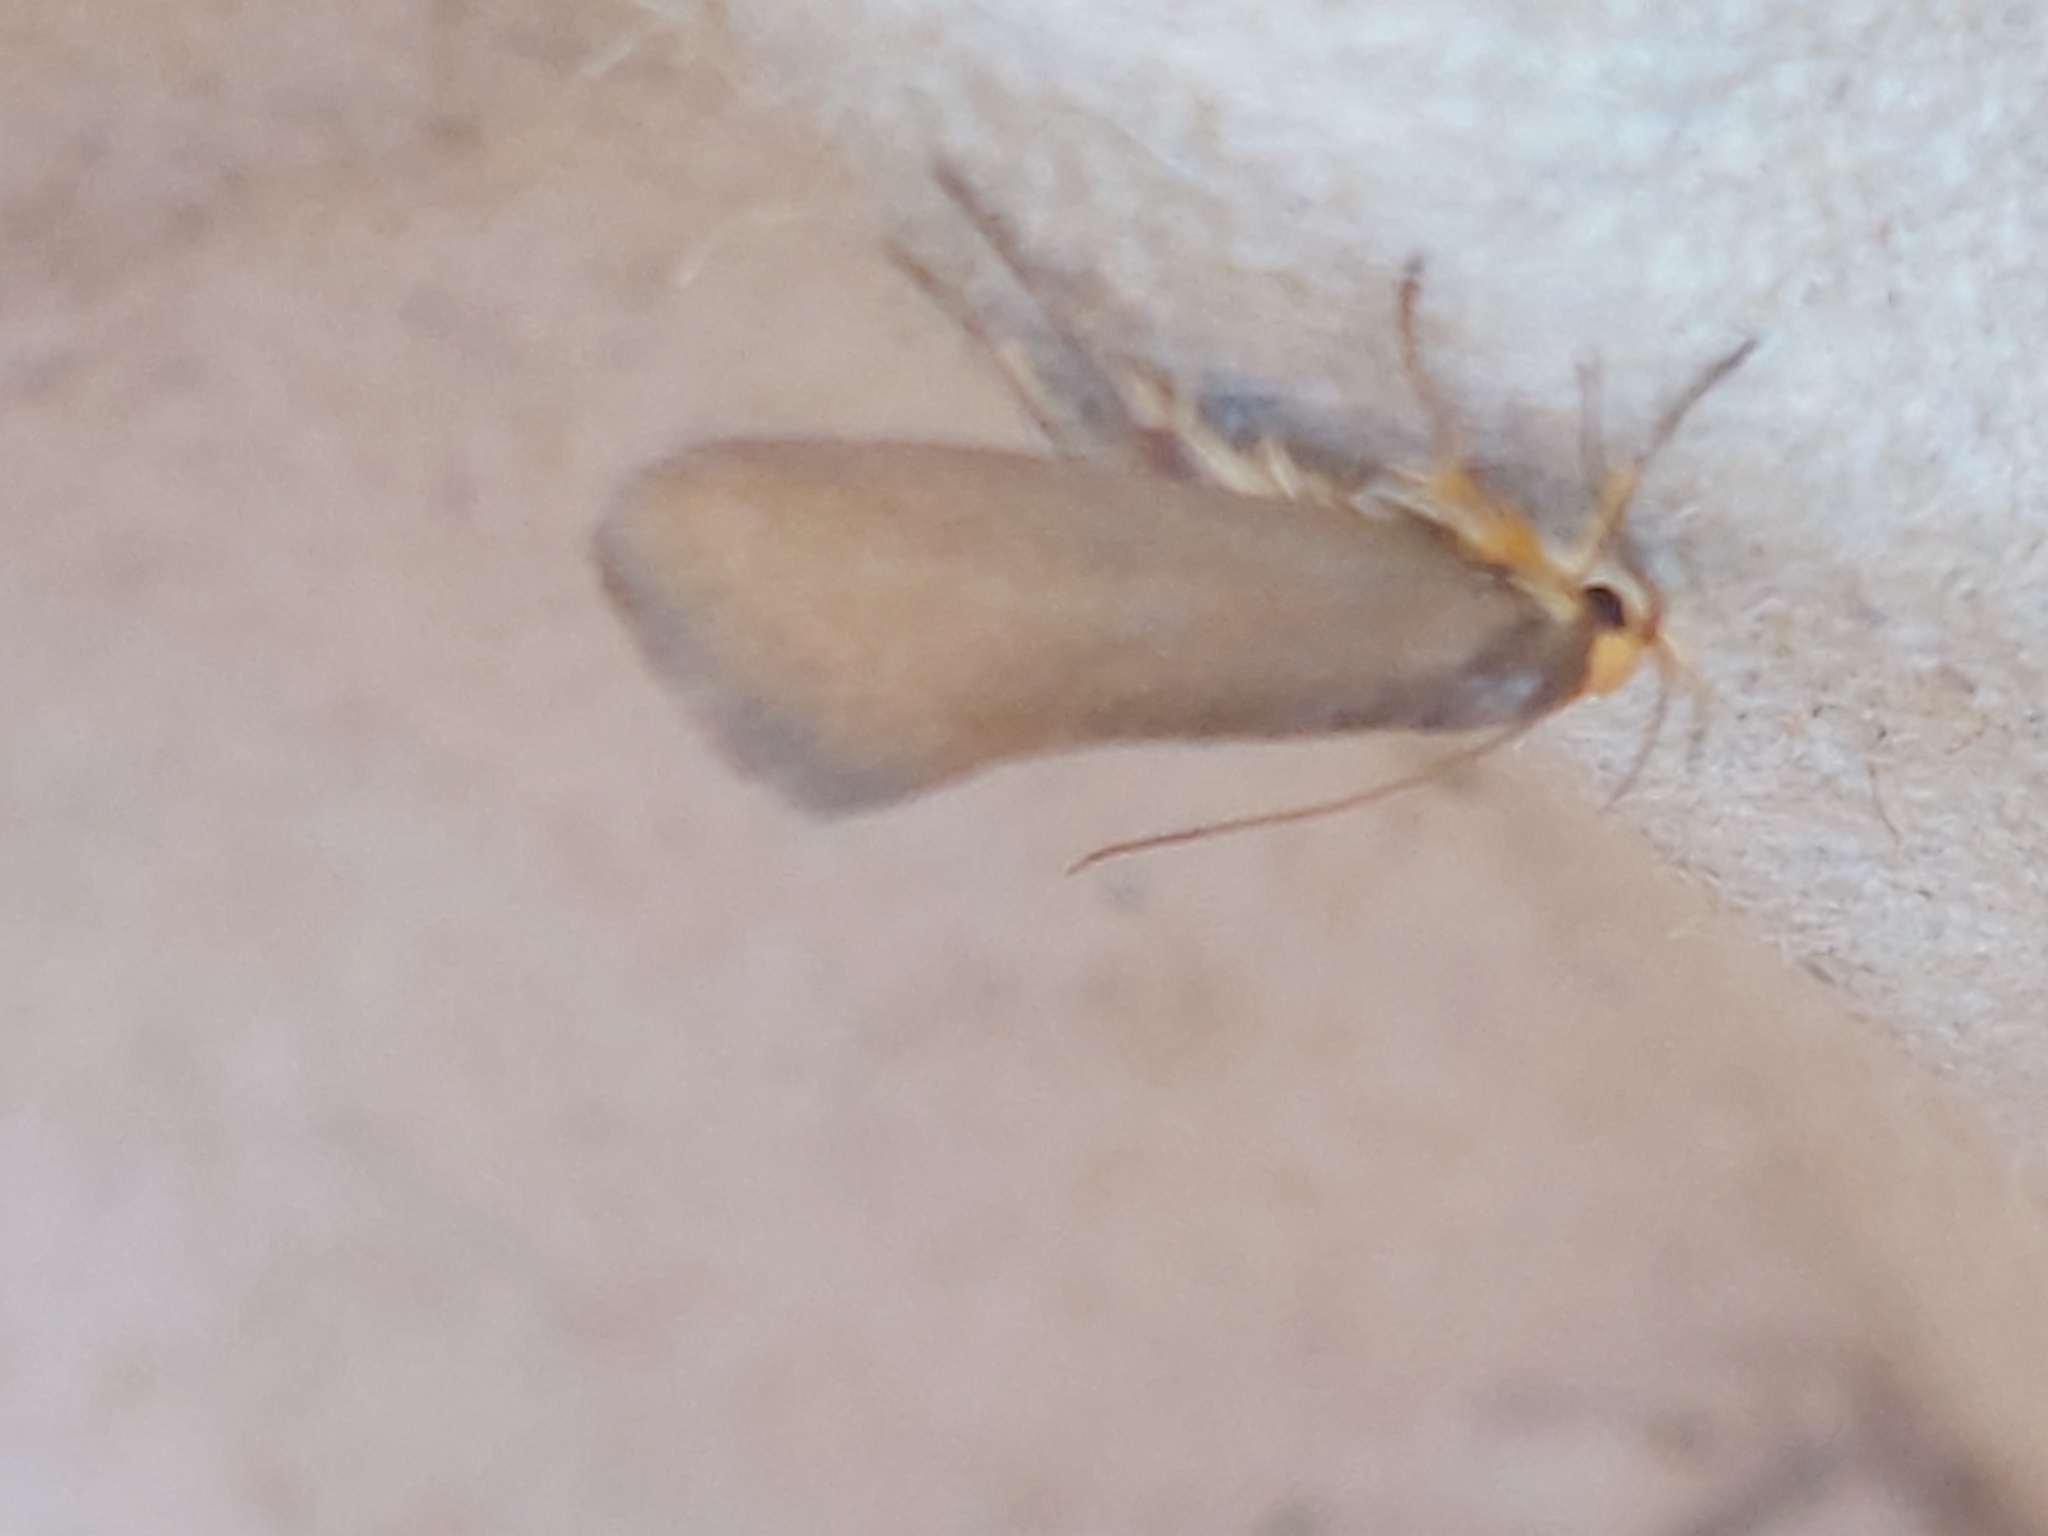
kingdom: Animalia
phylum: Arthropoda
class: Insecta
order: Lepidoptera
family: Oecophoridae
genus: Borkhausenia
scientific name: Borkhausenia Crassa unitella
